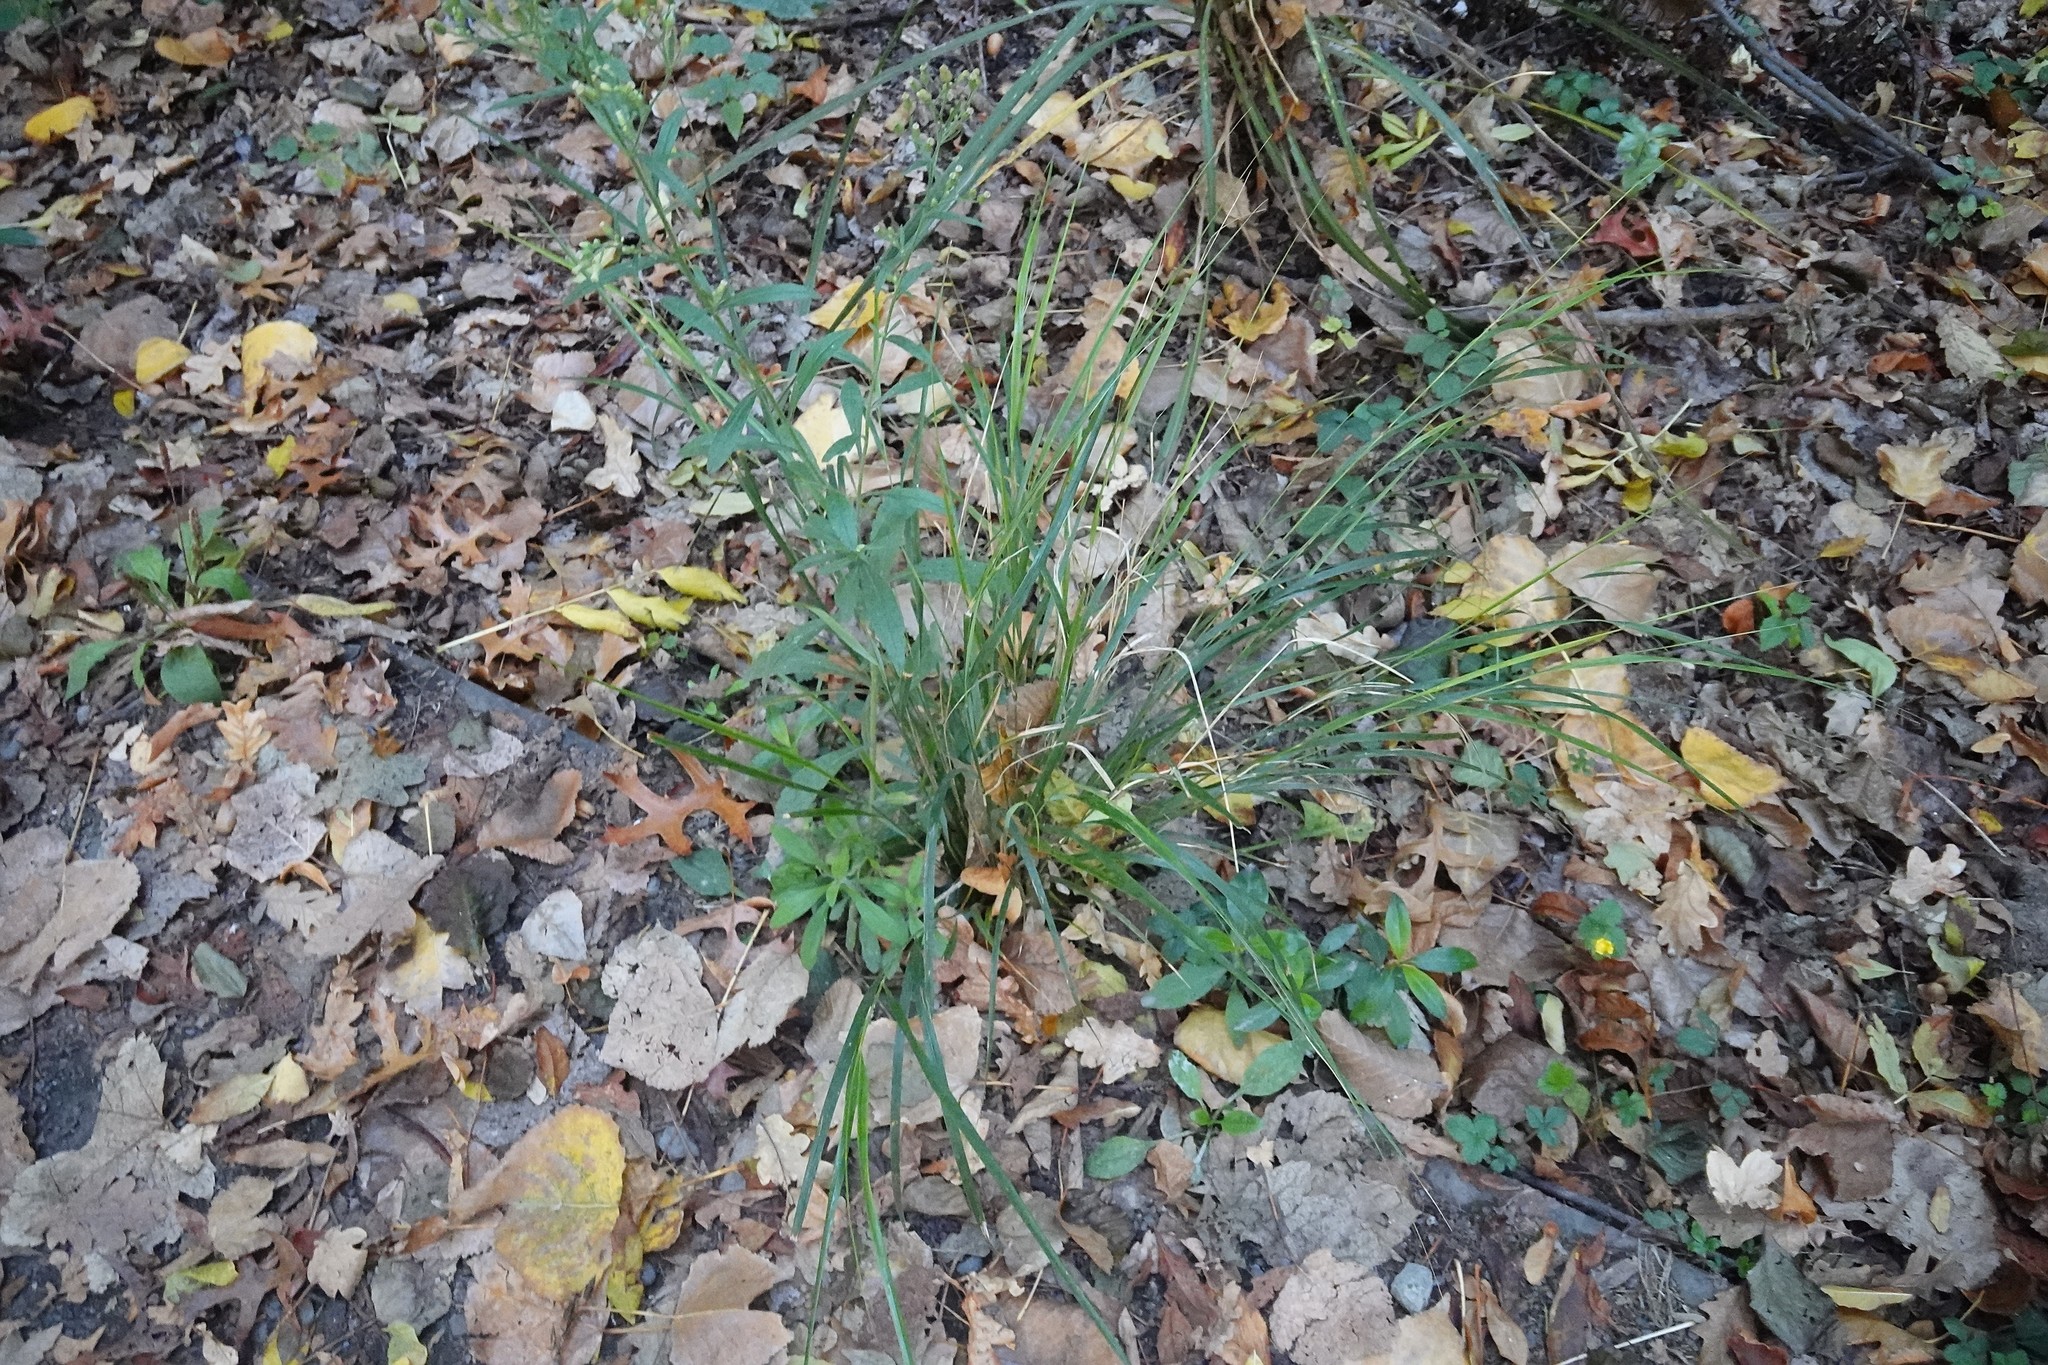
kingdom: Plantae
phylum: Tracheophyta
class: Liliopsida
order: Poales
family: Poaceae
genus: Anemanthele
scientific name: Anemanthele lessoniana
